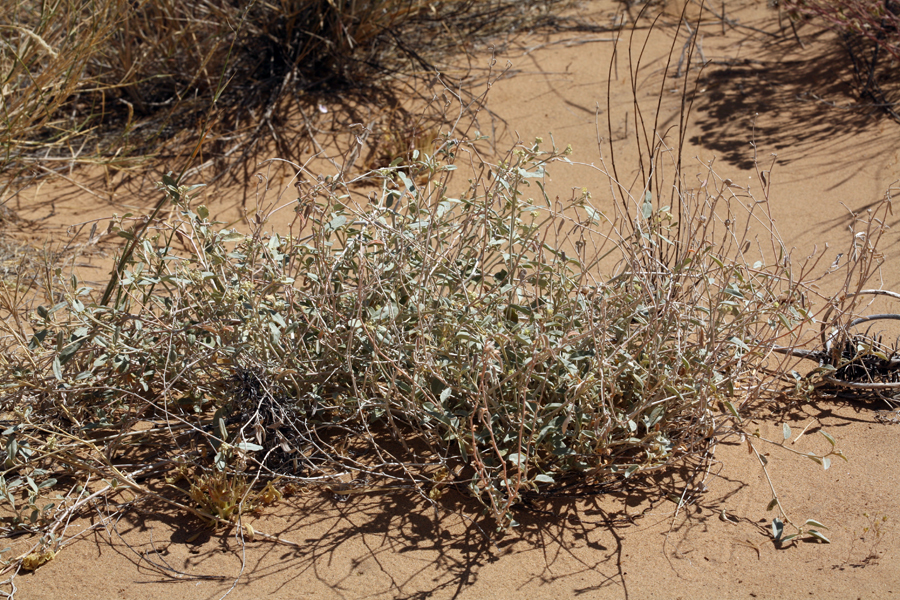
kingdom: Plantae
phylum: Tracheophyta
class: Magnoliopsida
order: Malpighiales
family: Euphorbiaceae
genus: Croton
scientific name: Croton californicus
